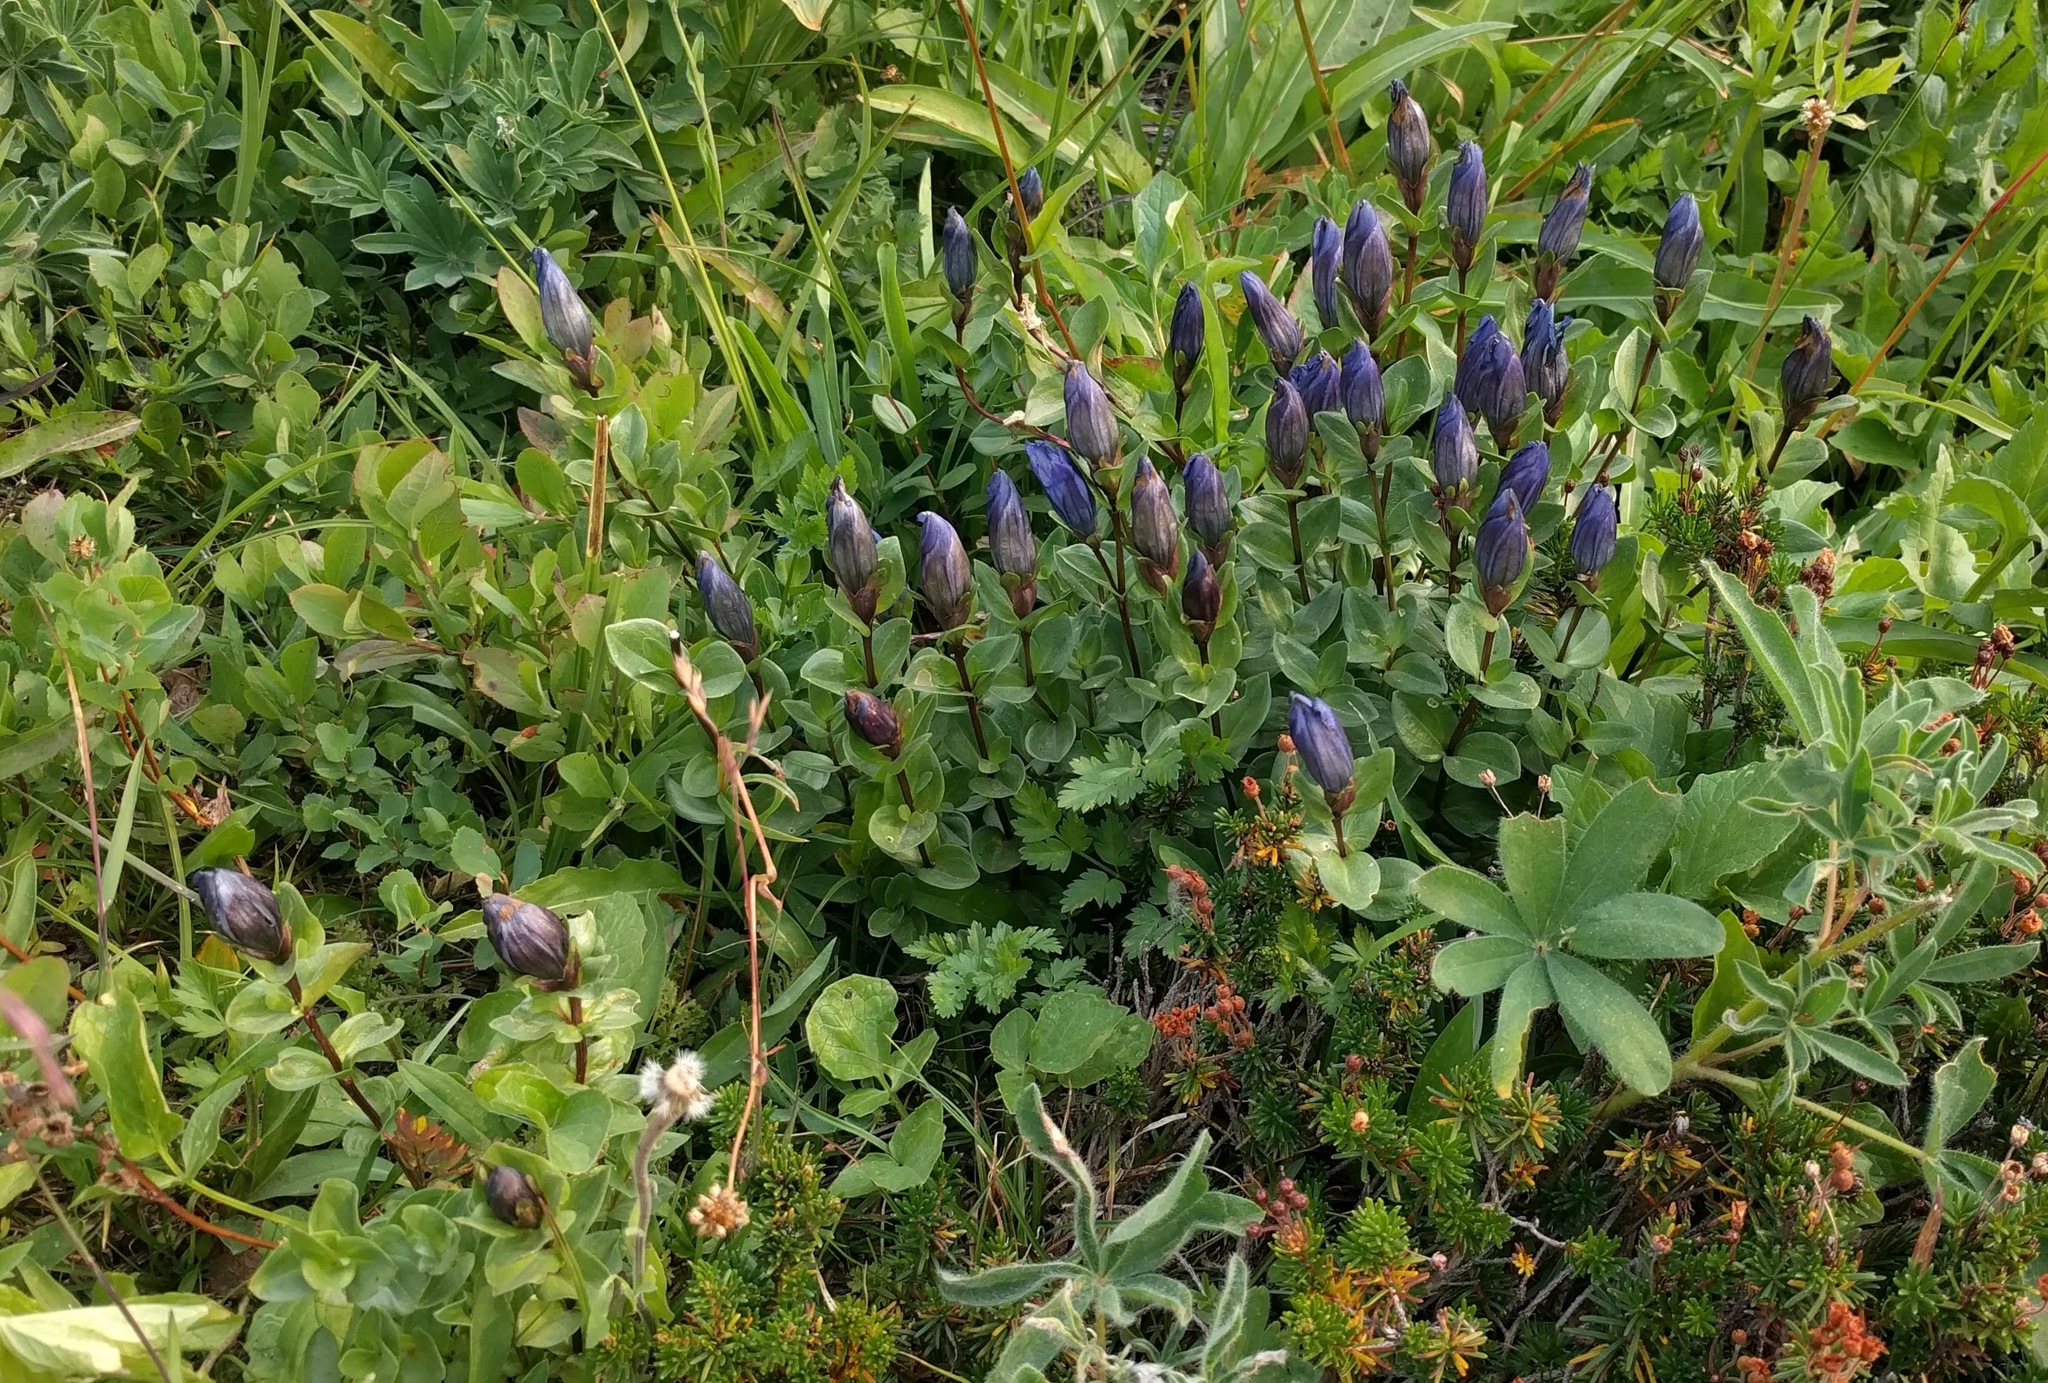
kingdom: Plantae
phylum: Tracheophyta
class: Magnoliopsida
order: Gentianales
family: Gentianaceae
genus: Gentiana
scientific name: Gentiana calycosa
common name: Rainier pleated gentian
